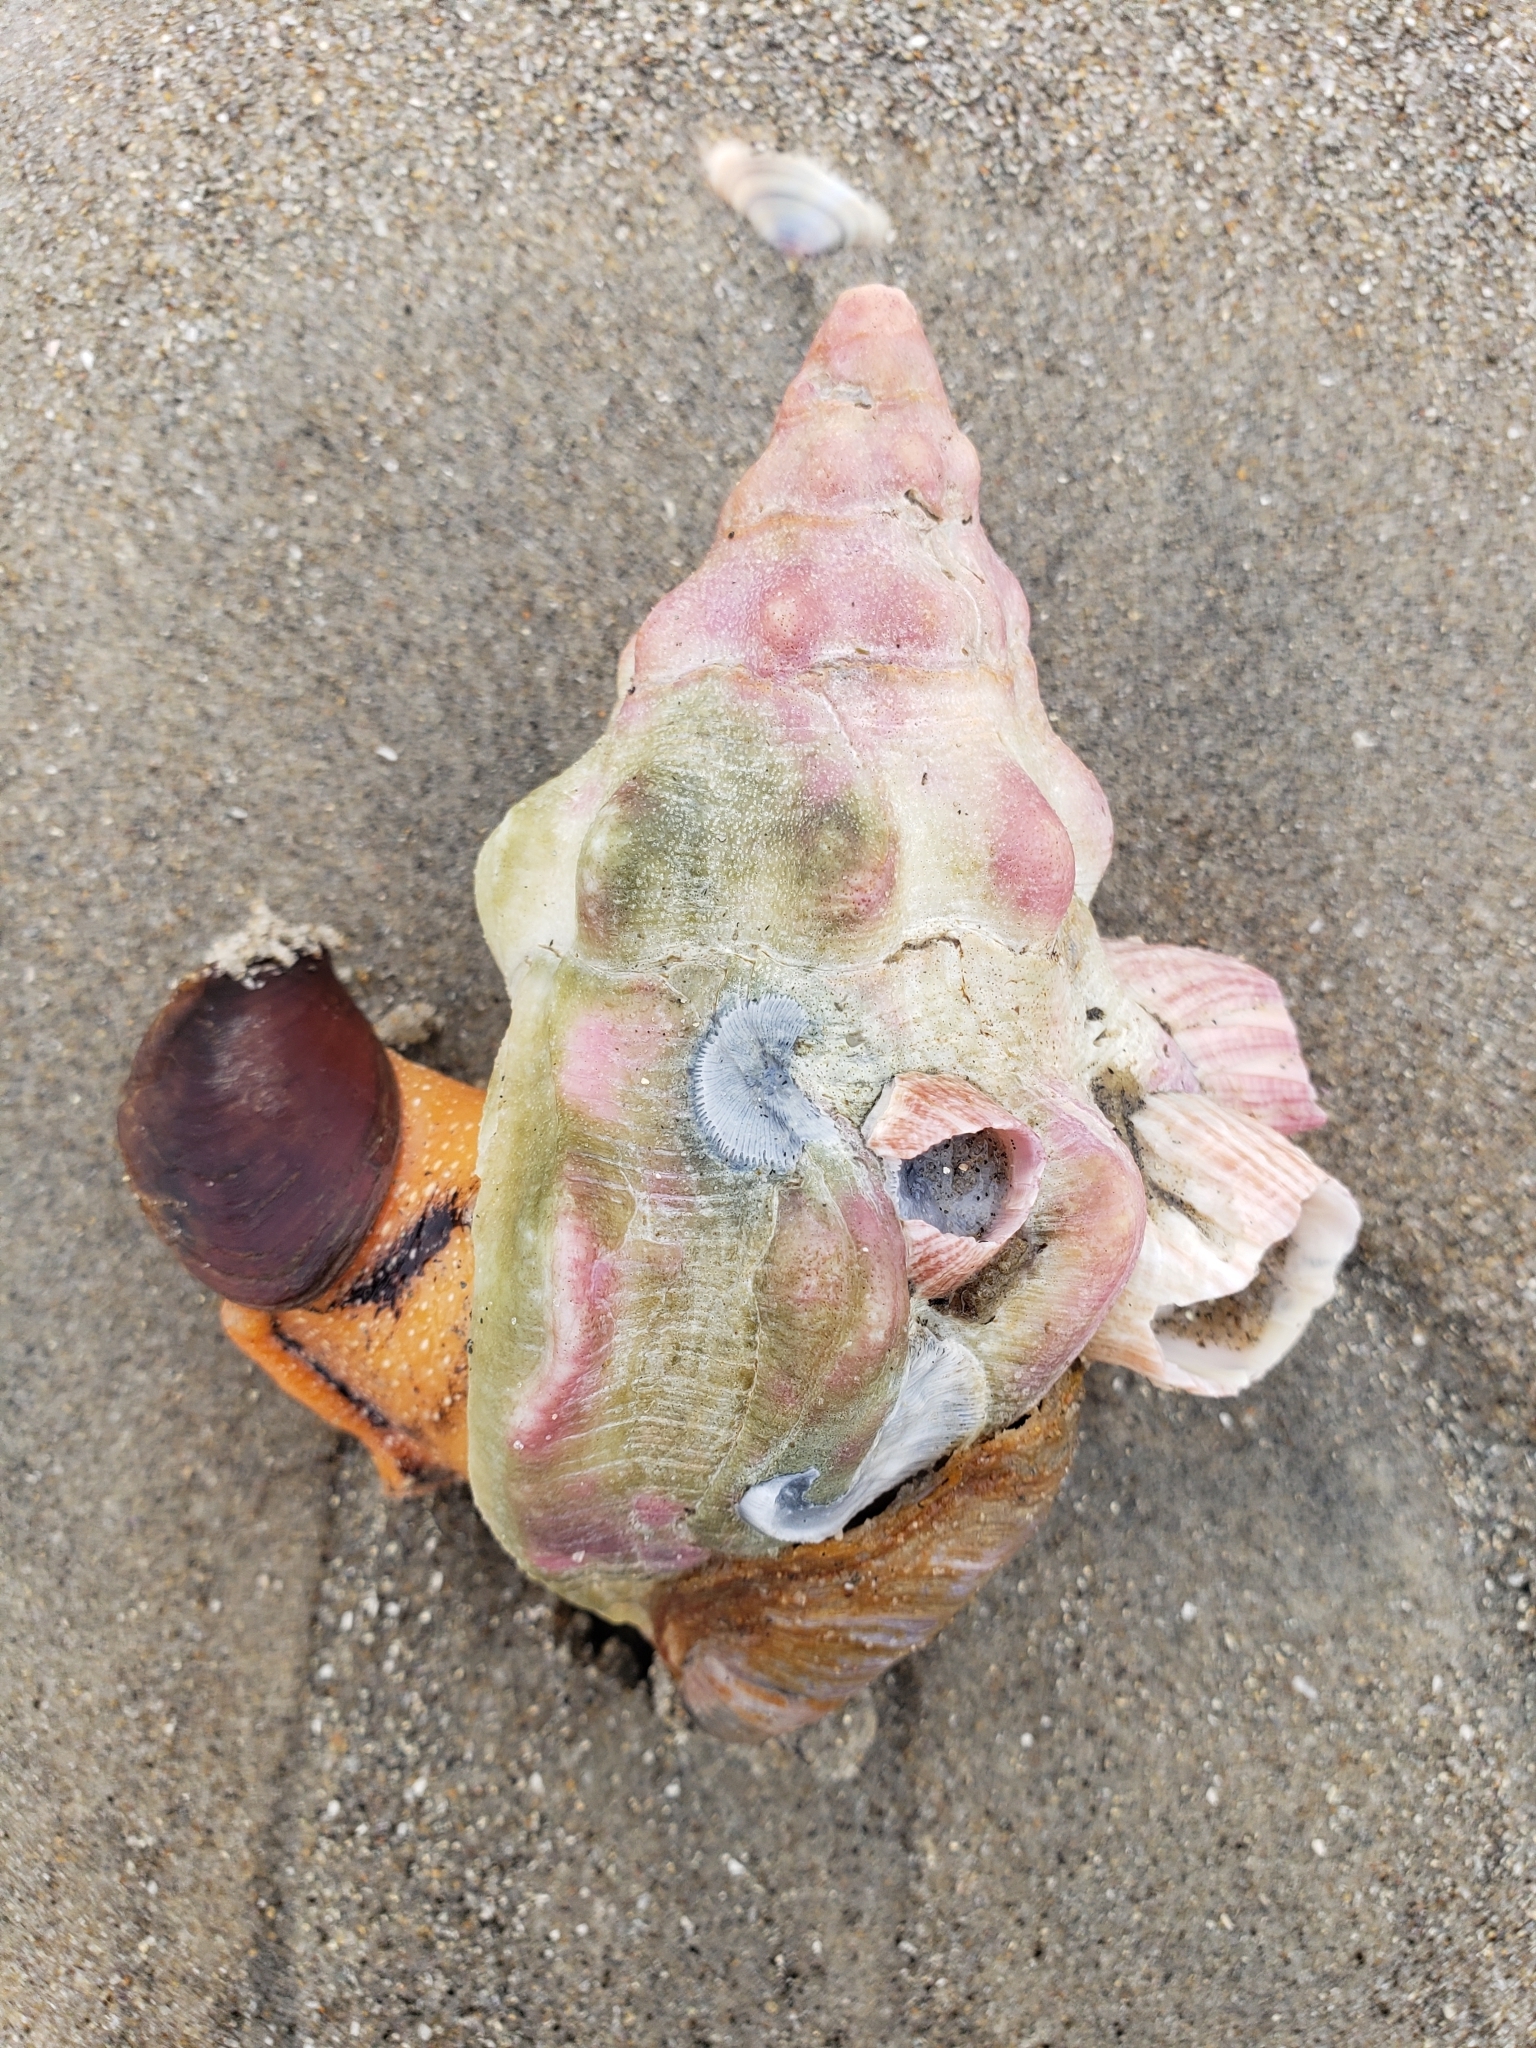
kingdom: Animalia
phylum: Mollusca
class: Gastropoda
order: Neogastropoda
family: Austrosiphonidae
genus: Kelletia
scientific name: Kelletia kelletii
